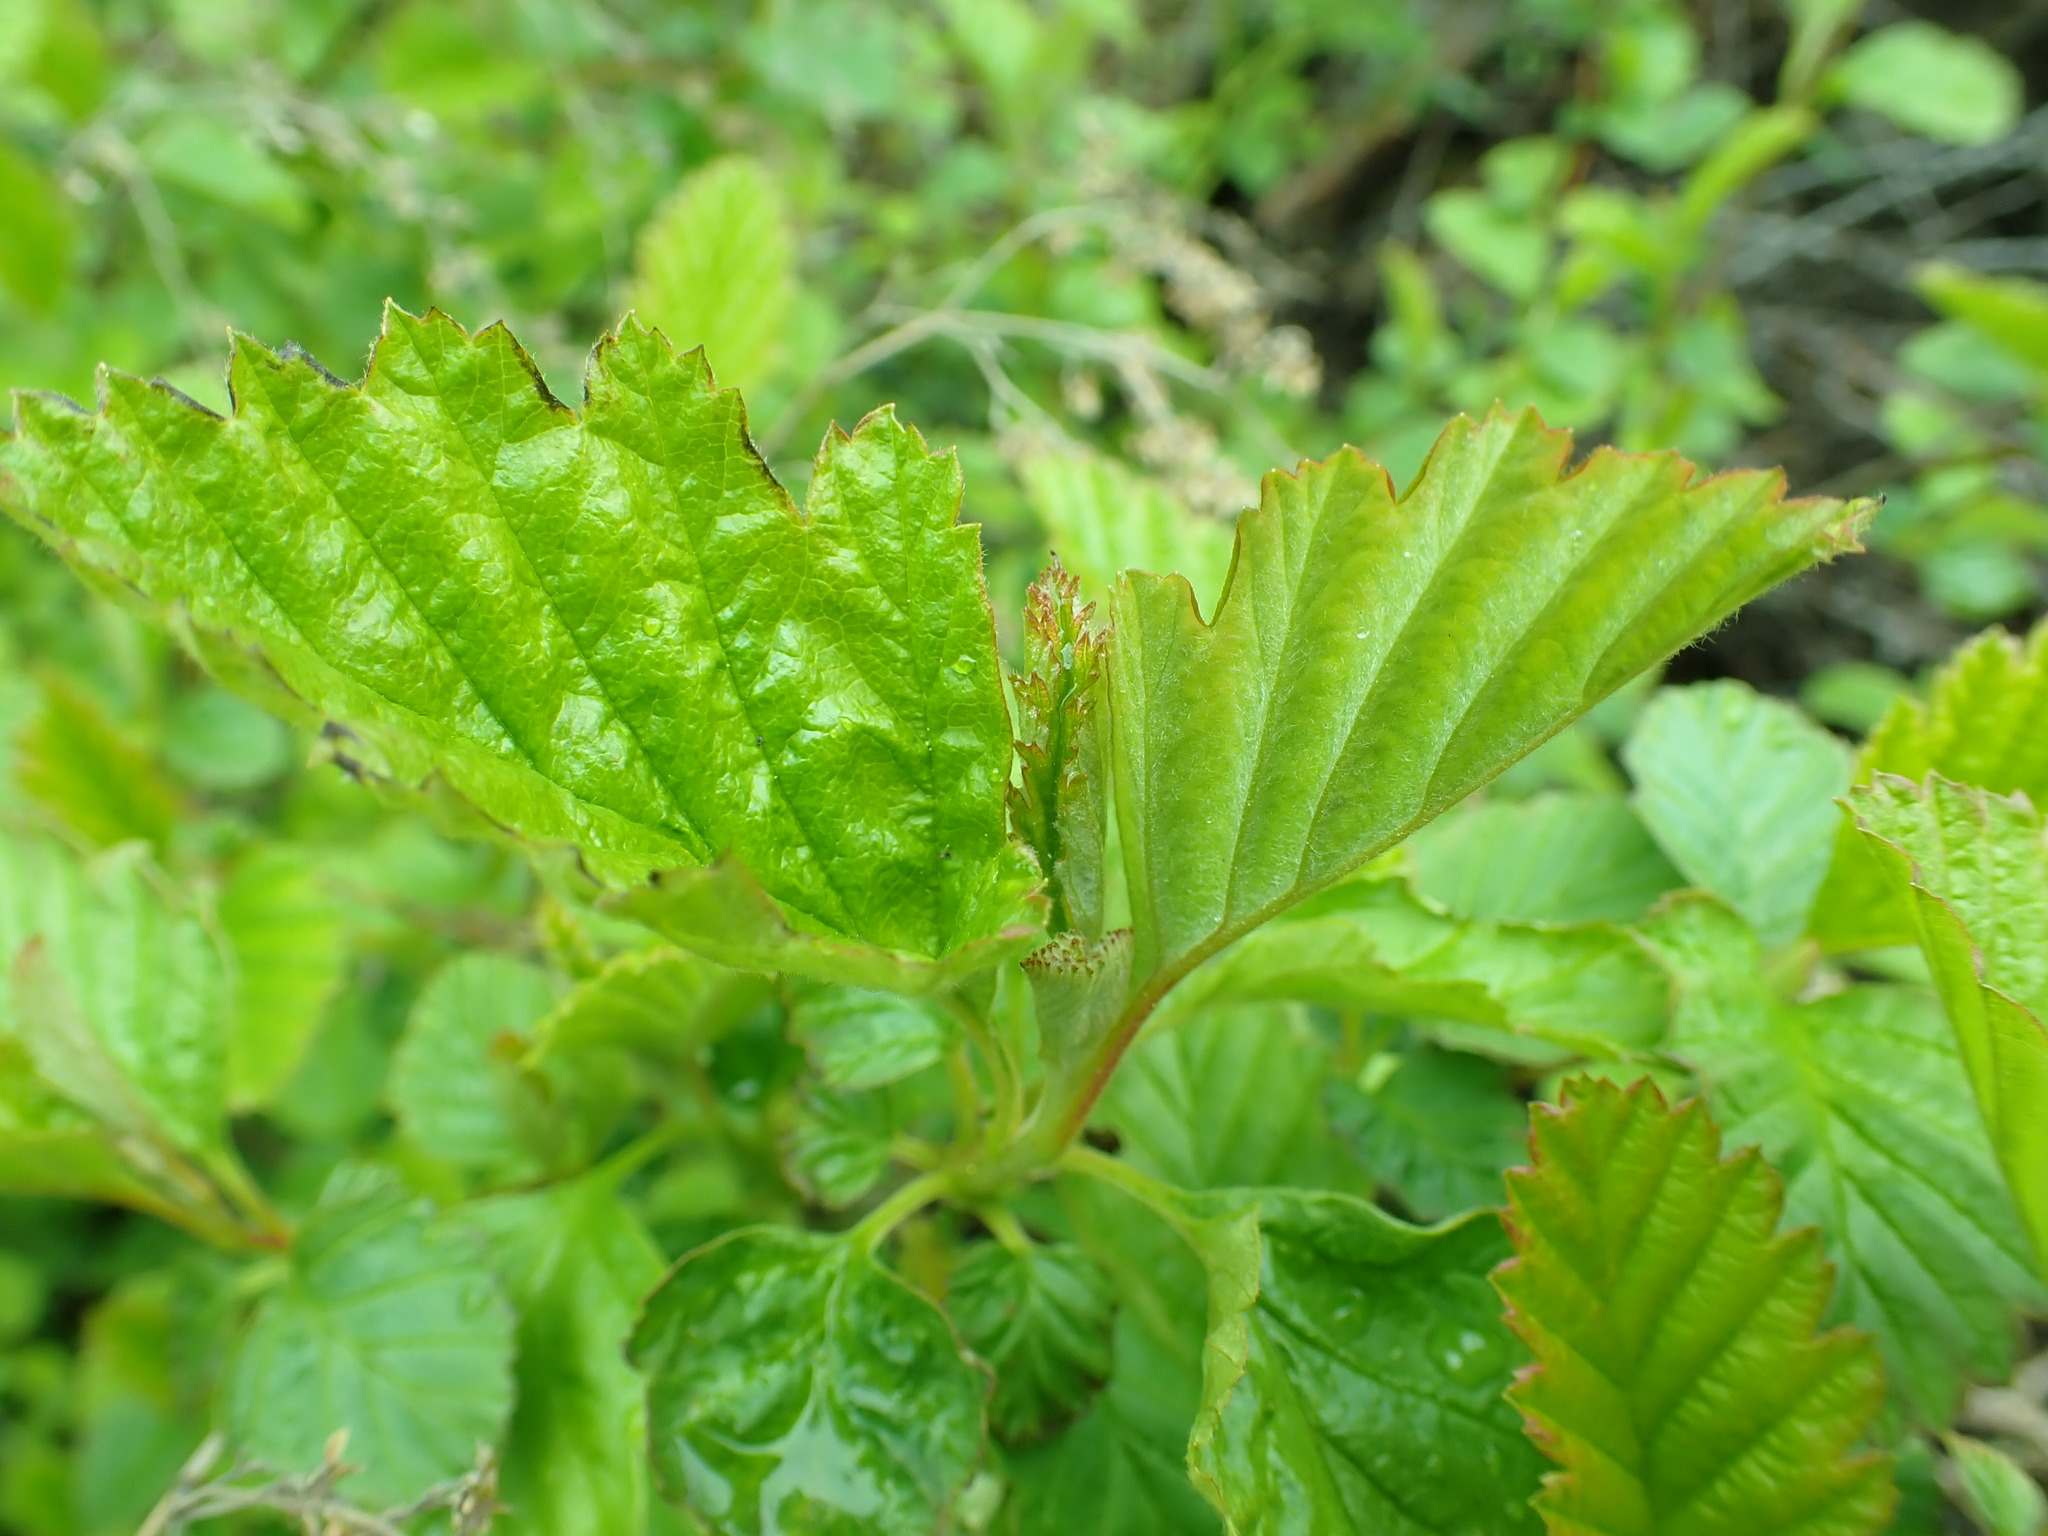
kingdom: Plantae
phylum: Tracheophyta
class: Magnoliopsida
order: Rosales
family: Rosaceae
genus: Holodiscus
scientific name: Holodiscus discolor
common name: Oceanspray
